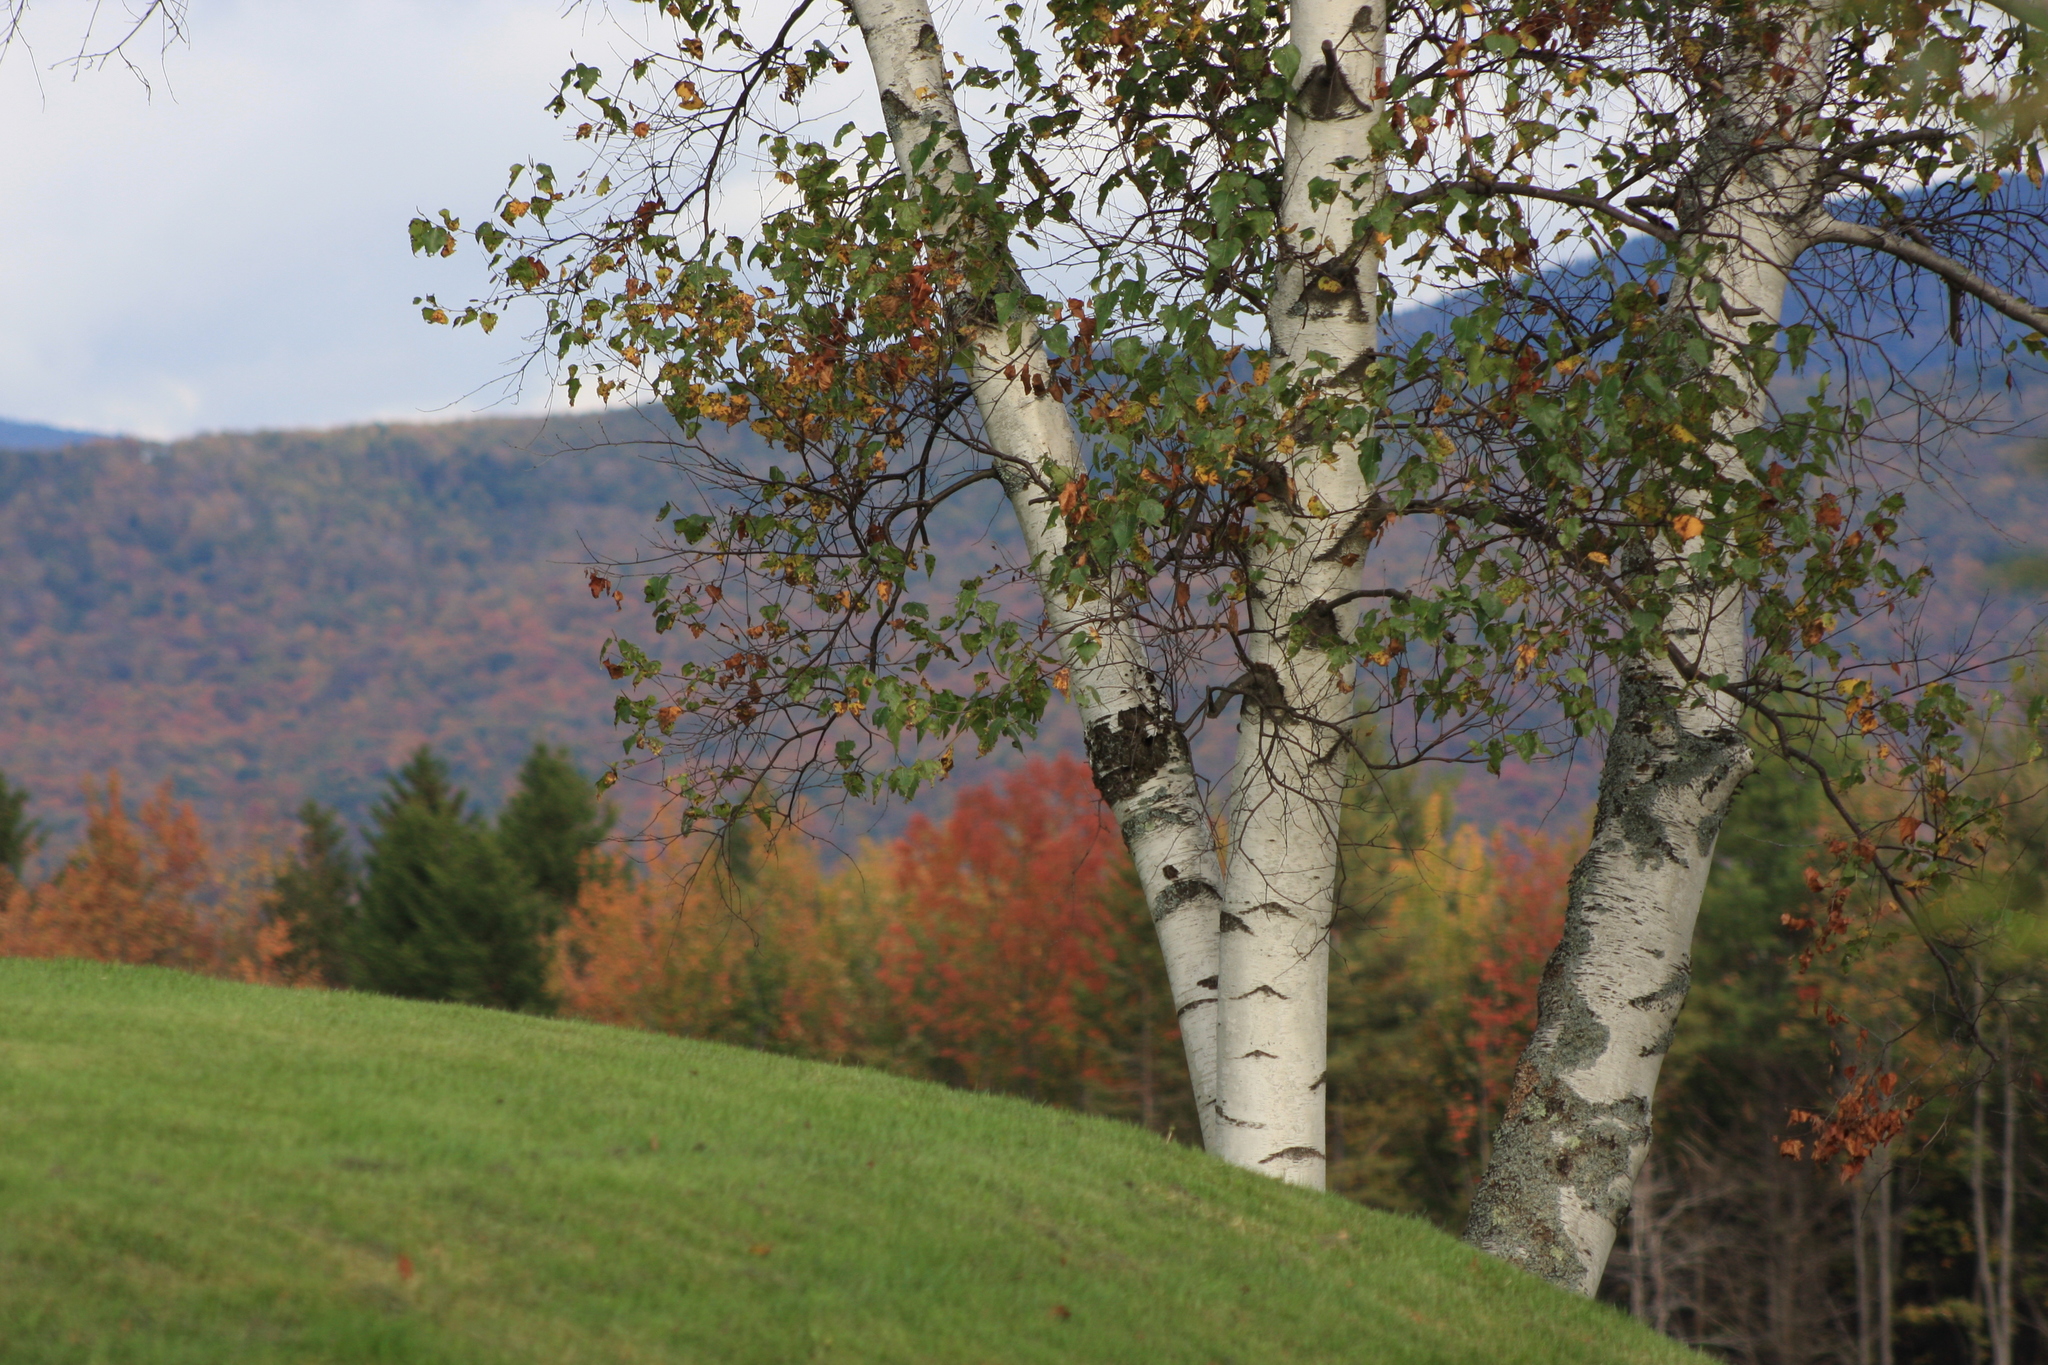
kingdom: Plantae
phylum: Tracheophyta
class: Magnoliopsida
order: Fagales
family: Betulaceae
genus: Betula
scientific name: Betula papyrifera
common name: Paper birch
